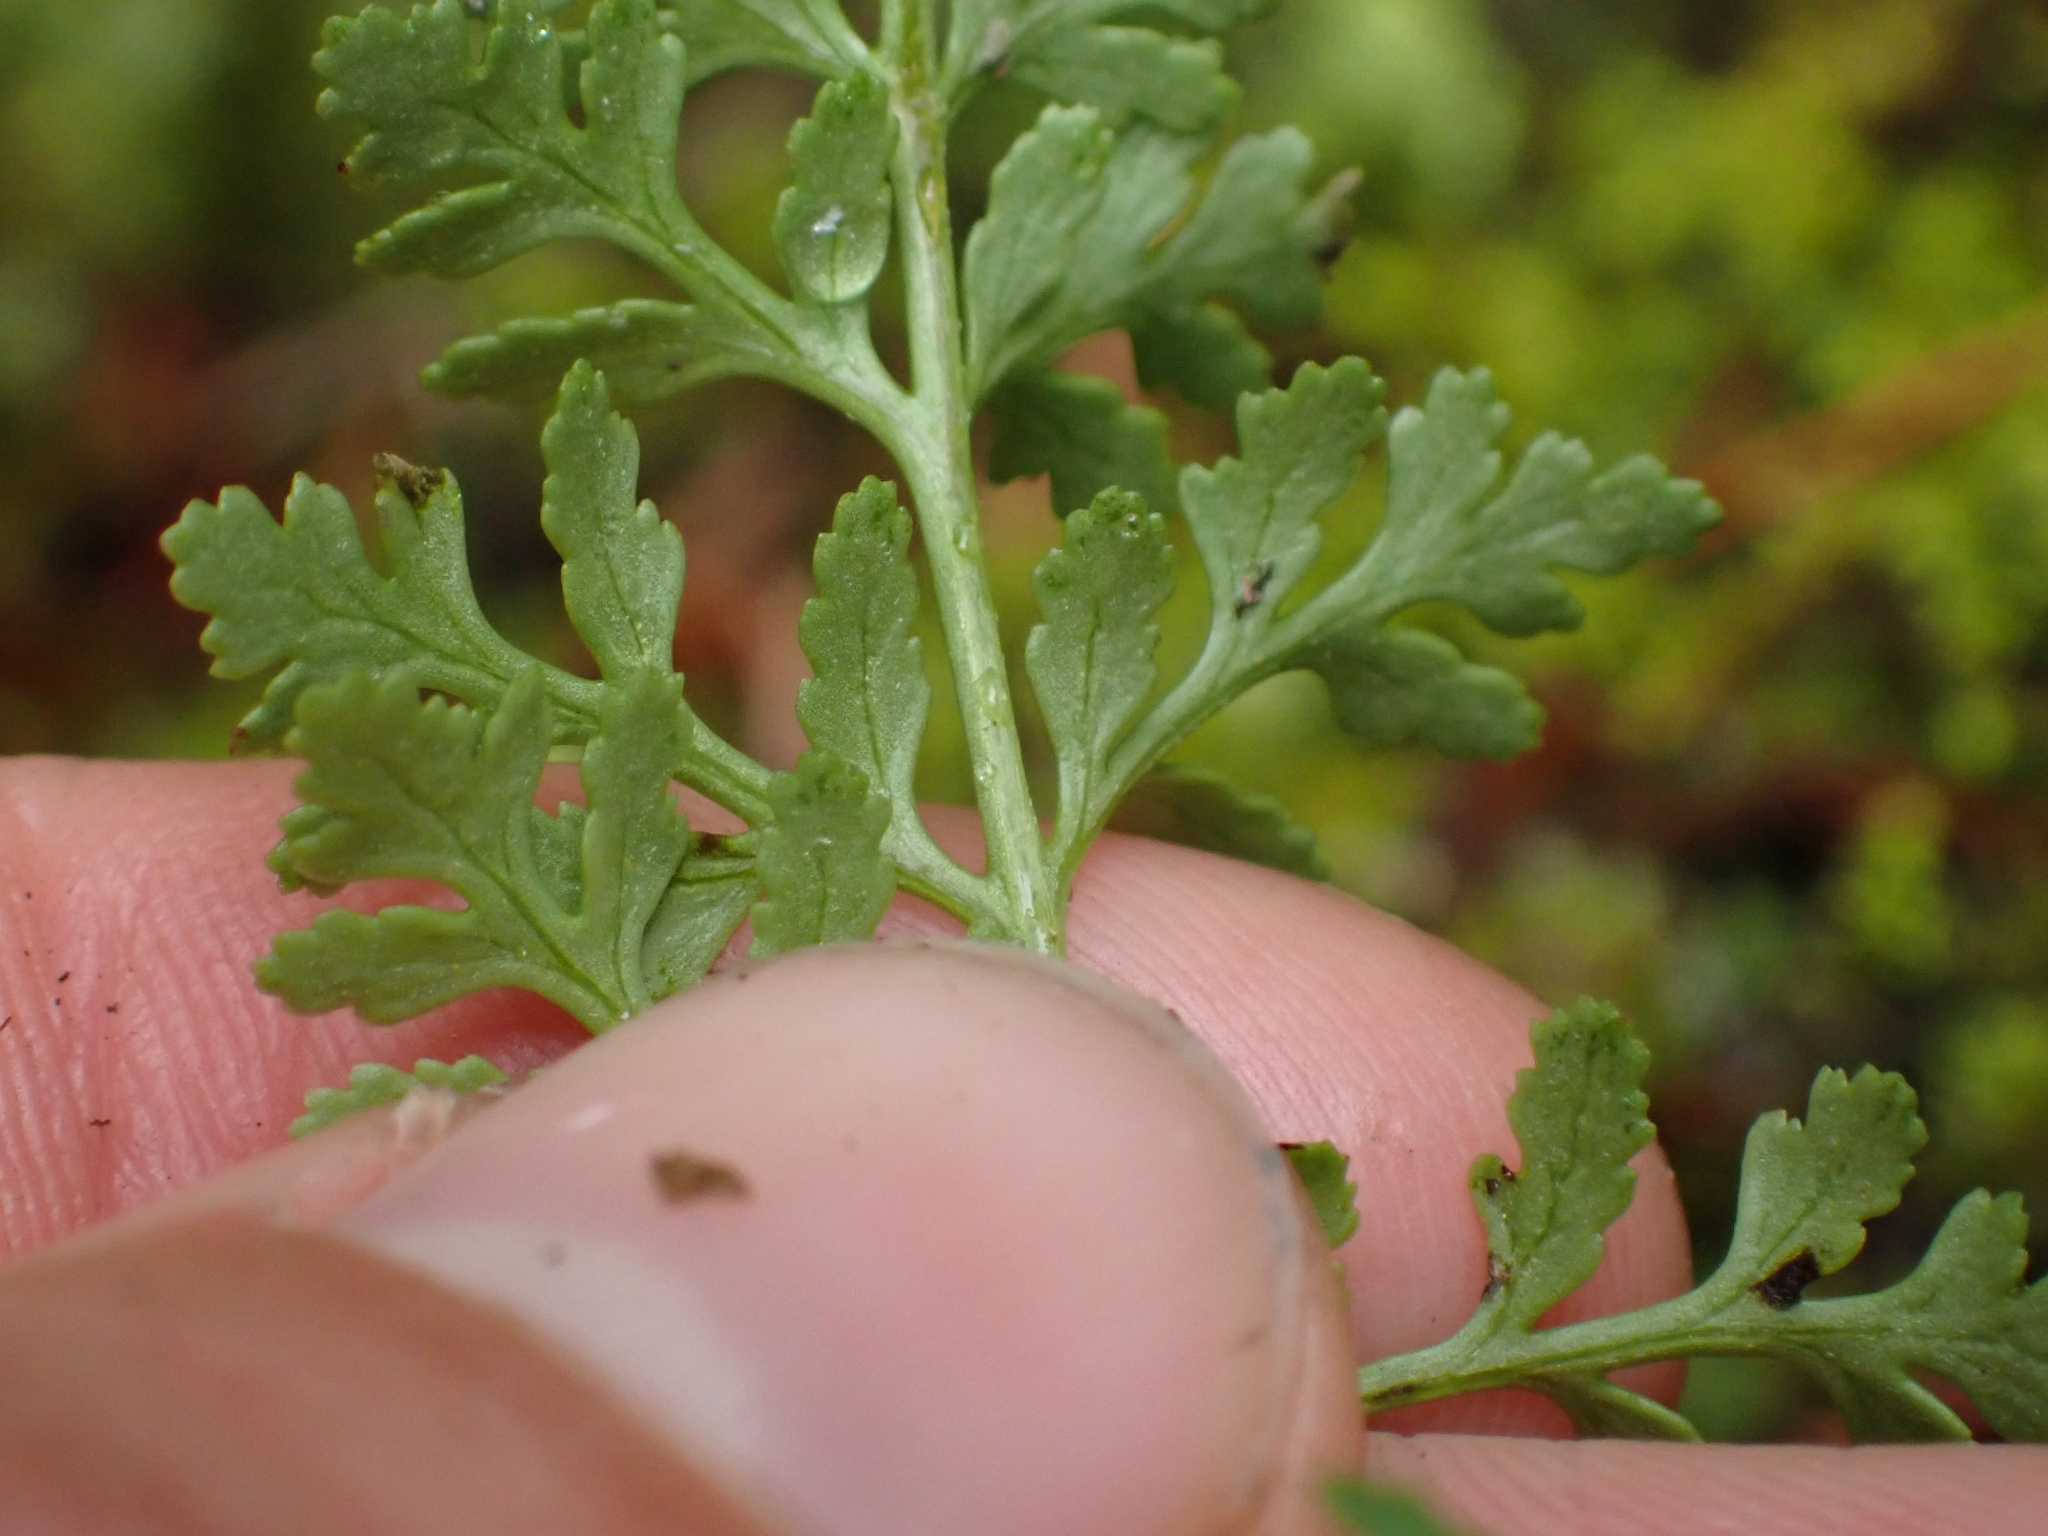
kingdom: Plantae
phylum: Tracheophyta
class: Polypodiopsida
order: Polypodiales
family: Pteridaceae
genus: Cryptogramma
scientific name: Cryptogramma acrostichoides
